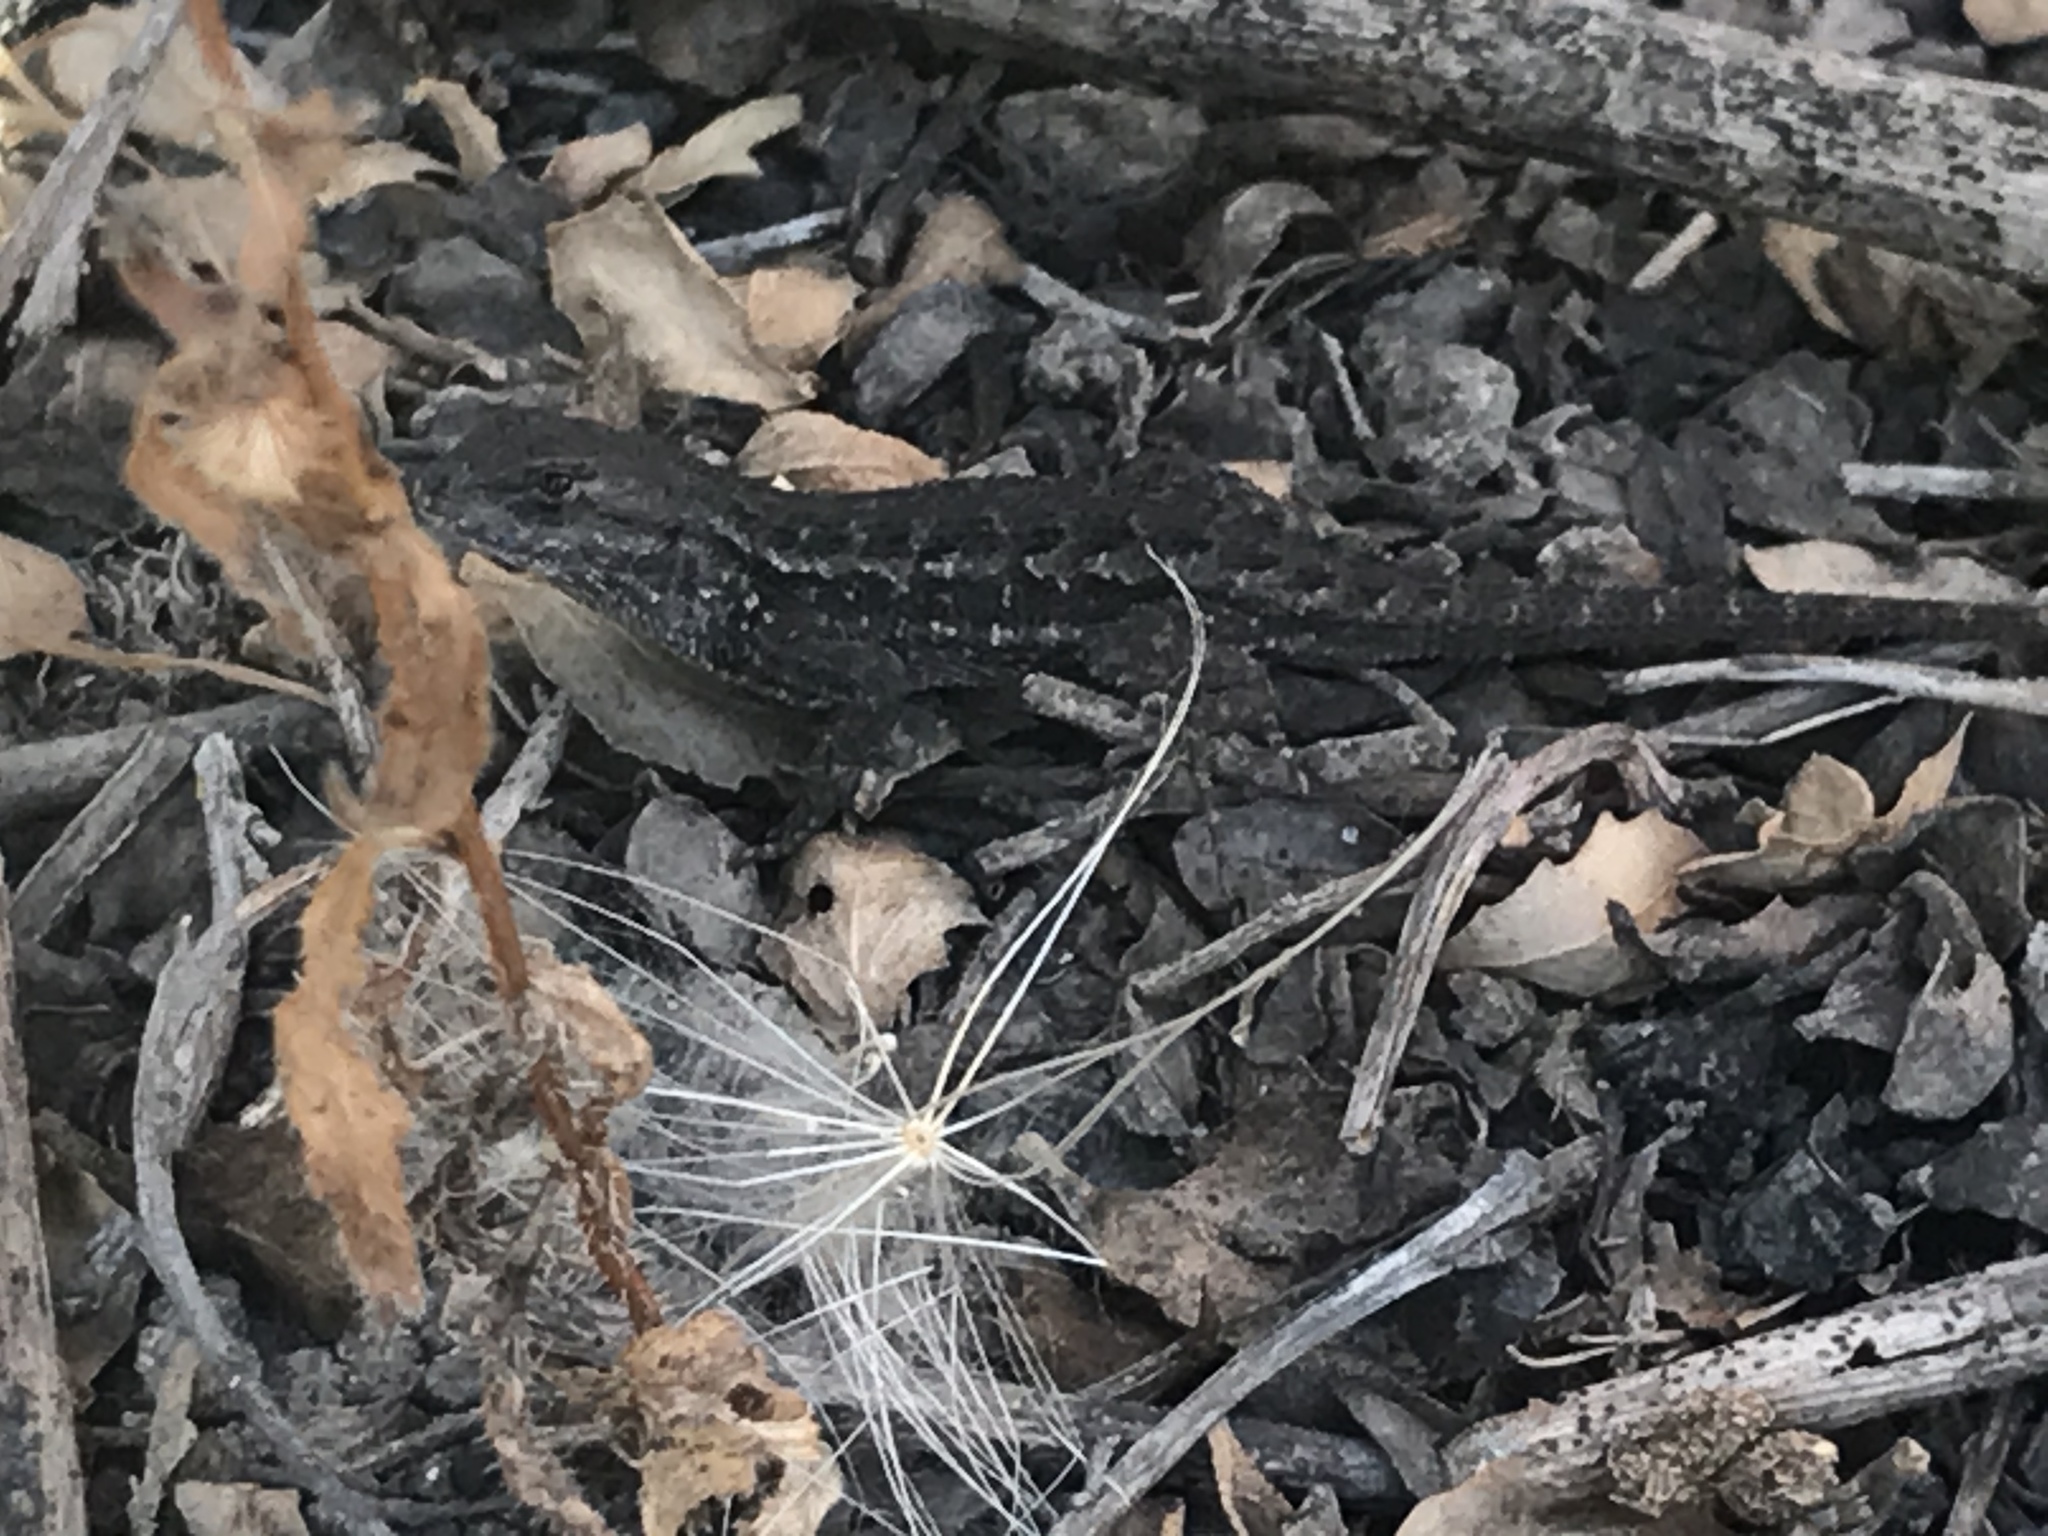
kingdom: Animalia
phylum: Chordata
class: Squamata
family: Phrynosomatidae
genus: Sceloporus
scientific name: Sceloporus occidentalis
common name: Western fence lizard
